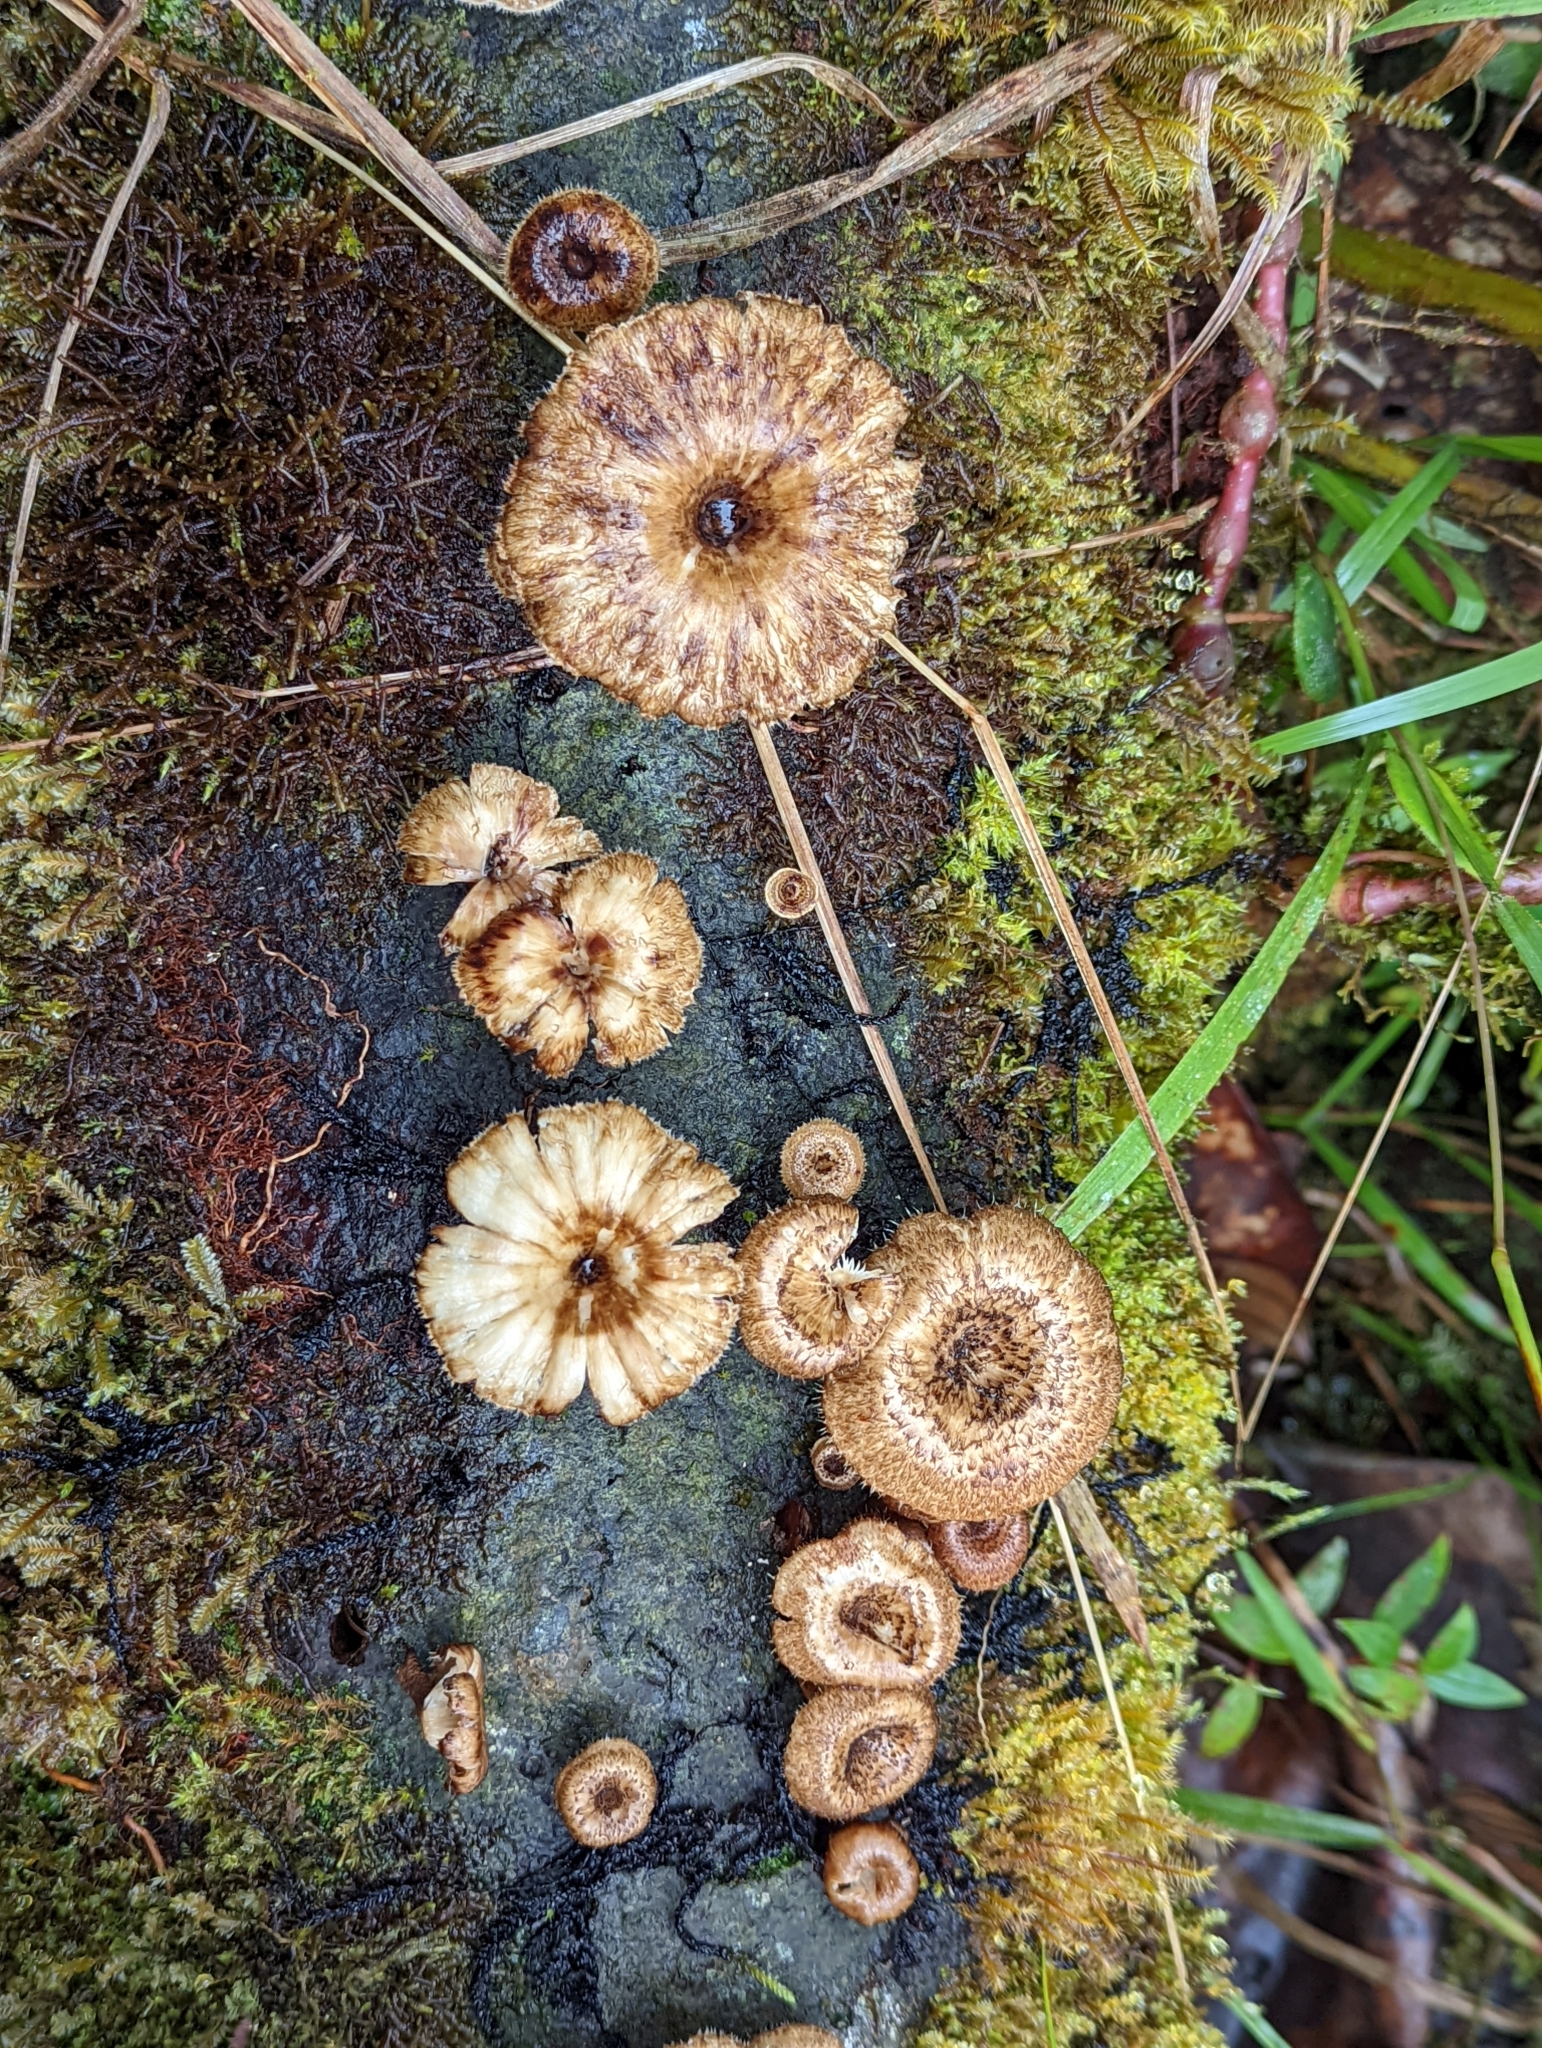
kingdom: Fungi
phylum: Basidiomycota
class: Agaricomycetes
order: Polyporales
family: Polyporaceae
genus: Lentinus
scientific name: Lentinus crinitus
